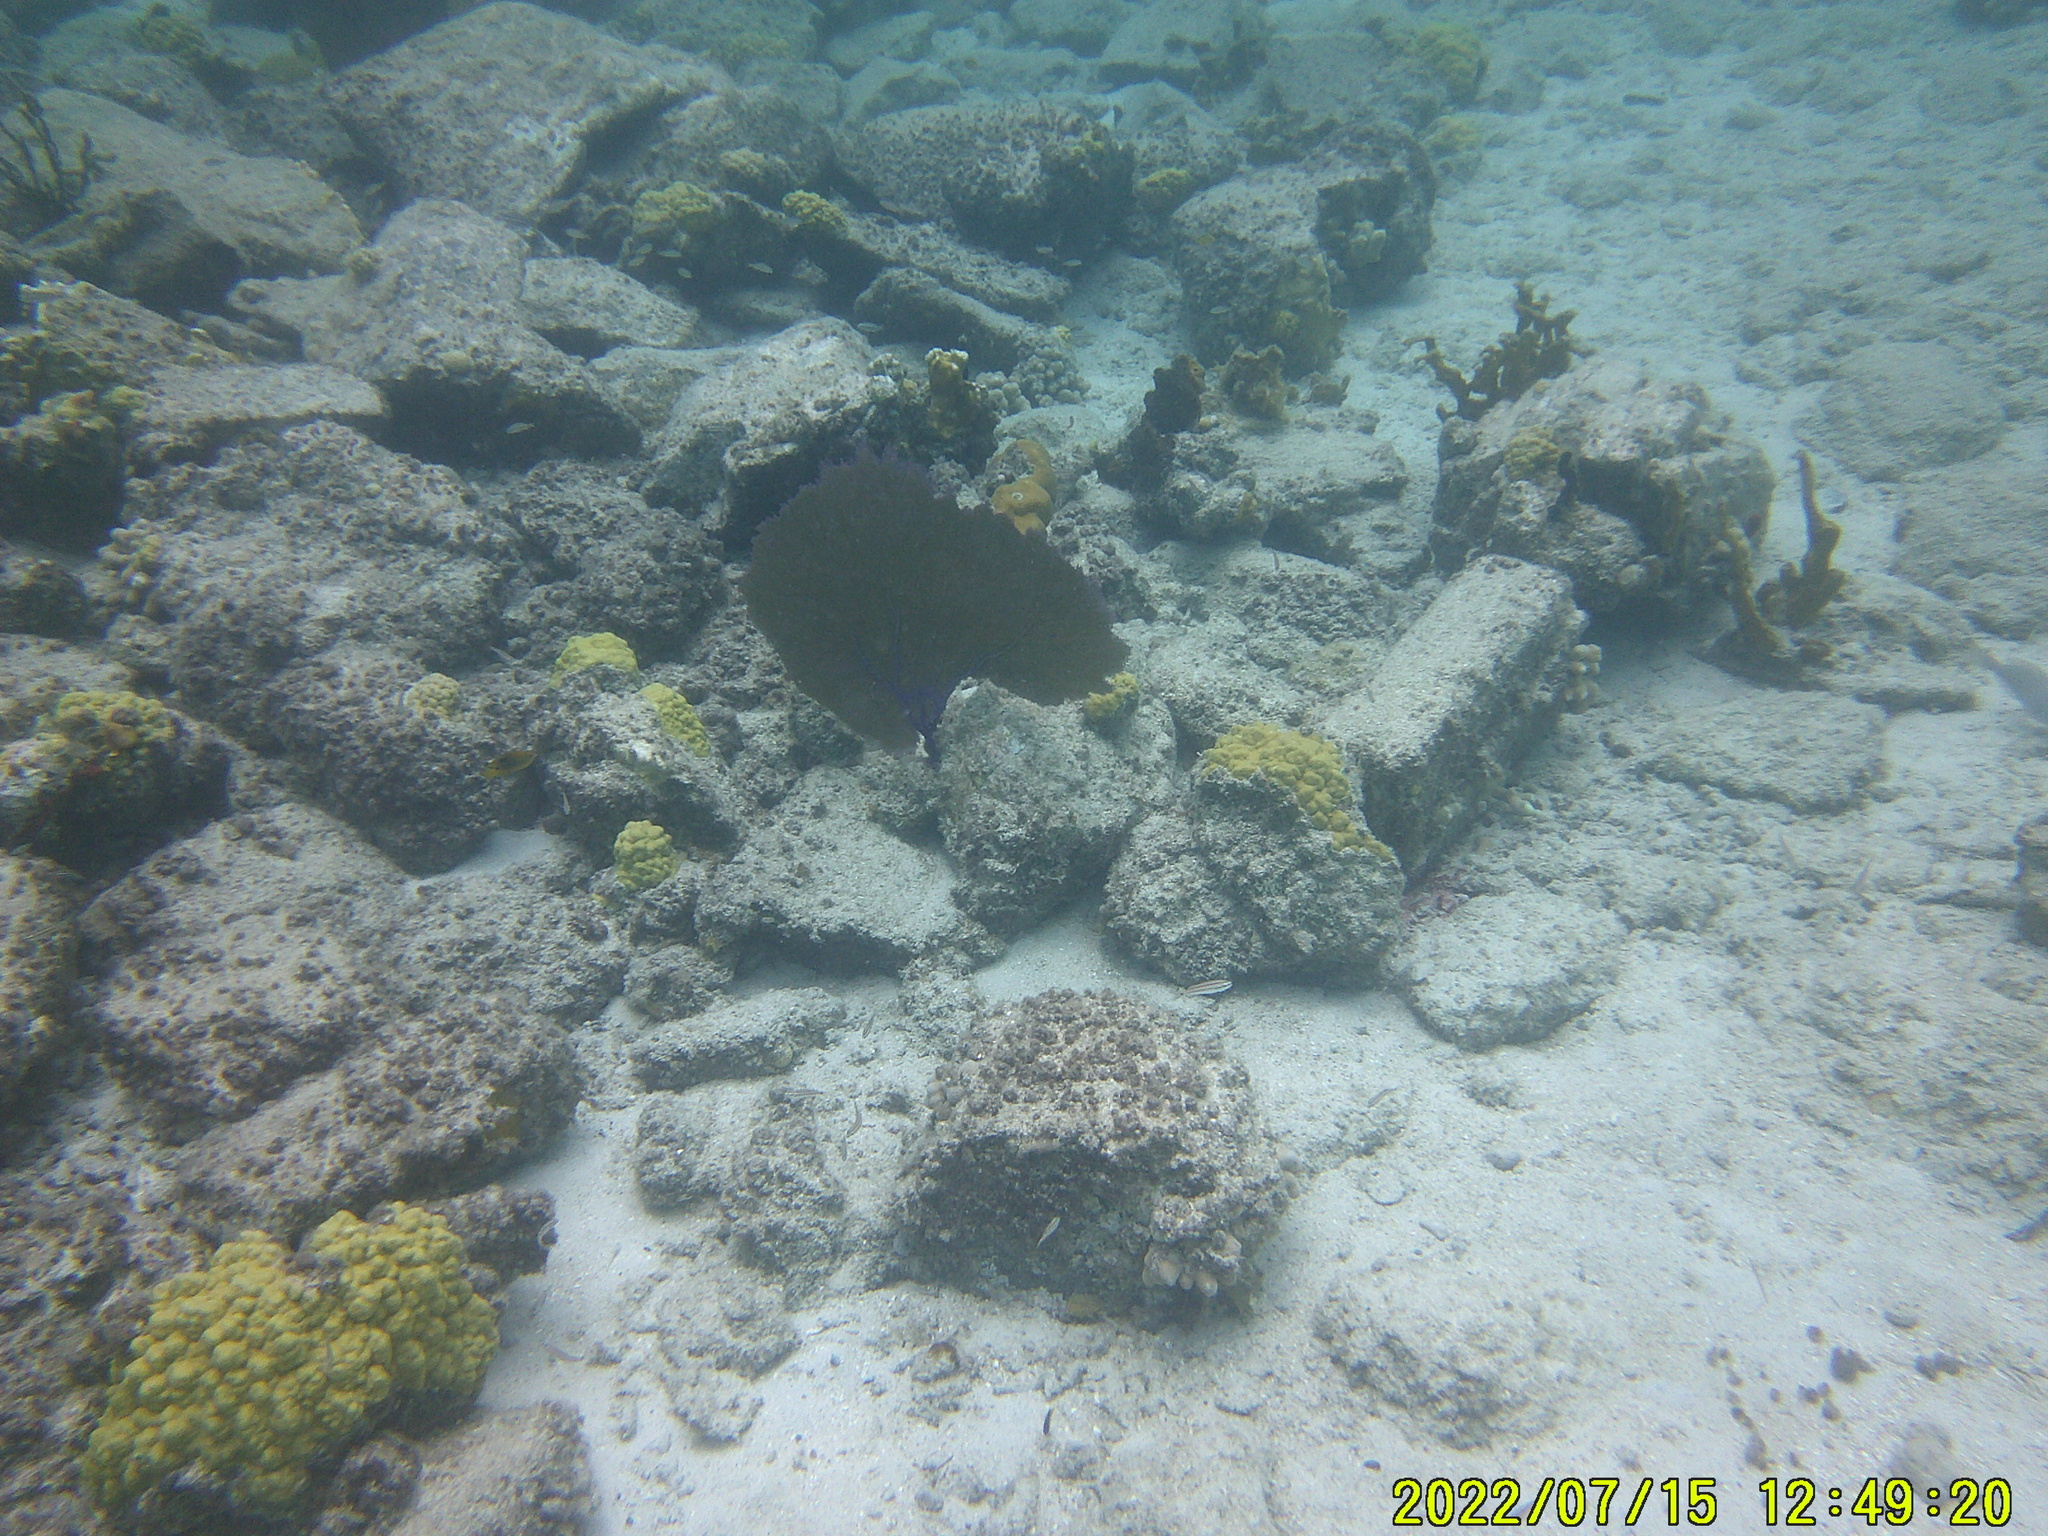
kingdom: Animalia
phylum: Cnidaria
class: Anthozoa
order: Malacalcyonacea
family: Gorgoniidae
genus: Gorgonia
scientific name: Gorgonia ventalina
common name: Common sea fan
